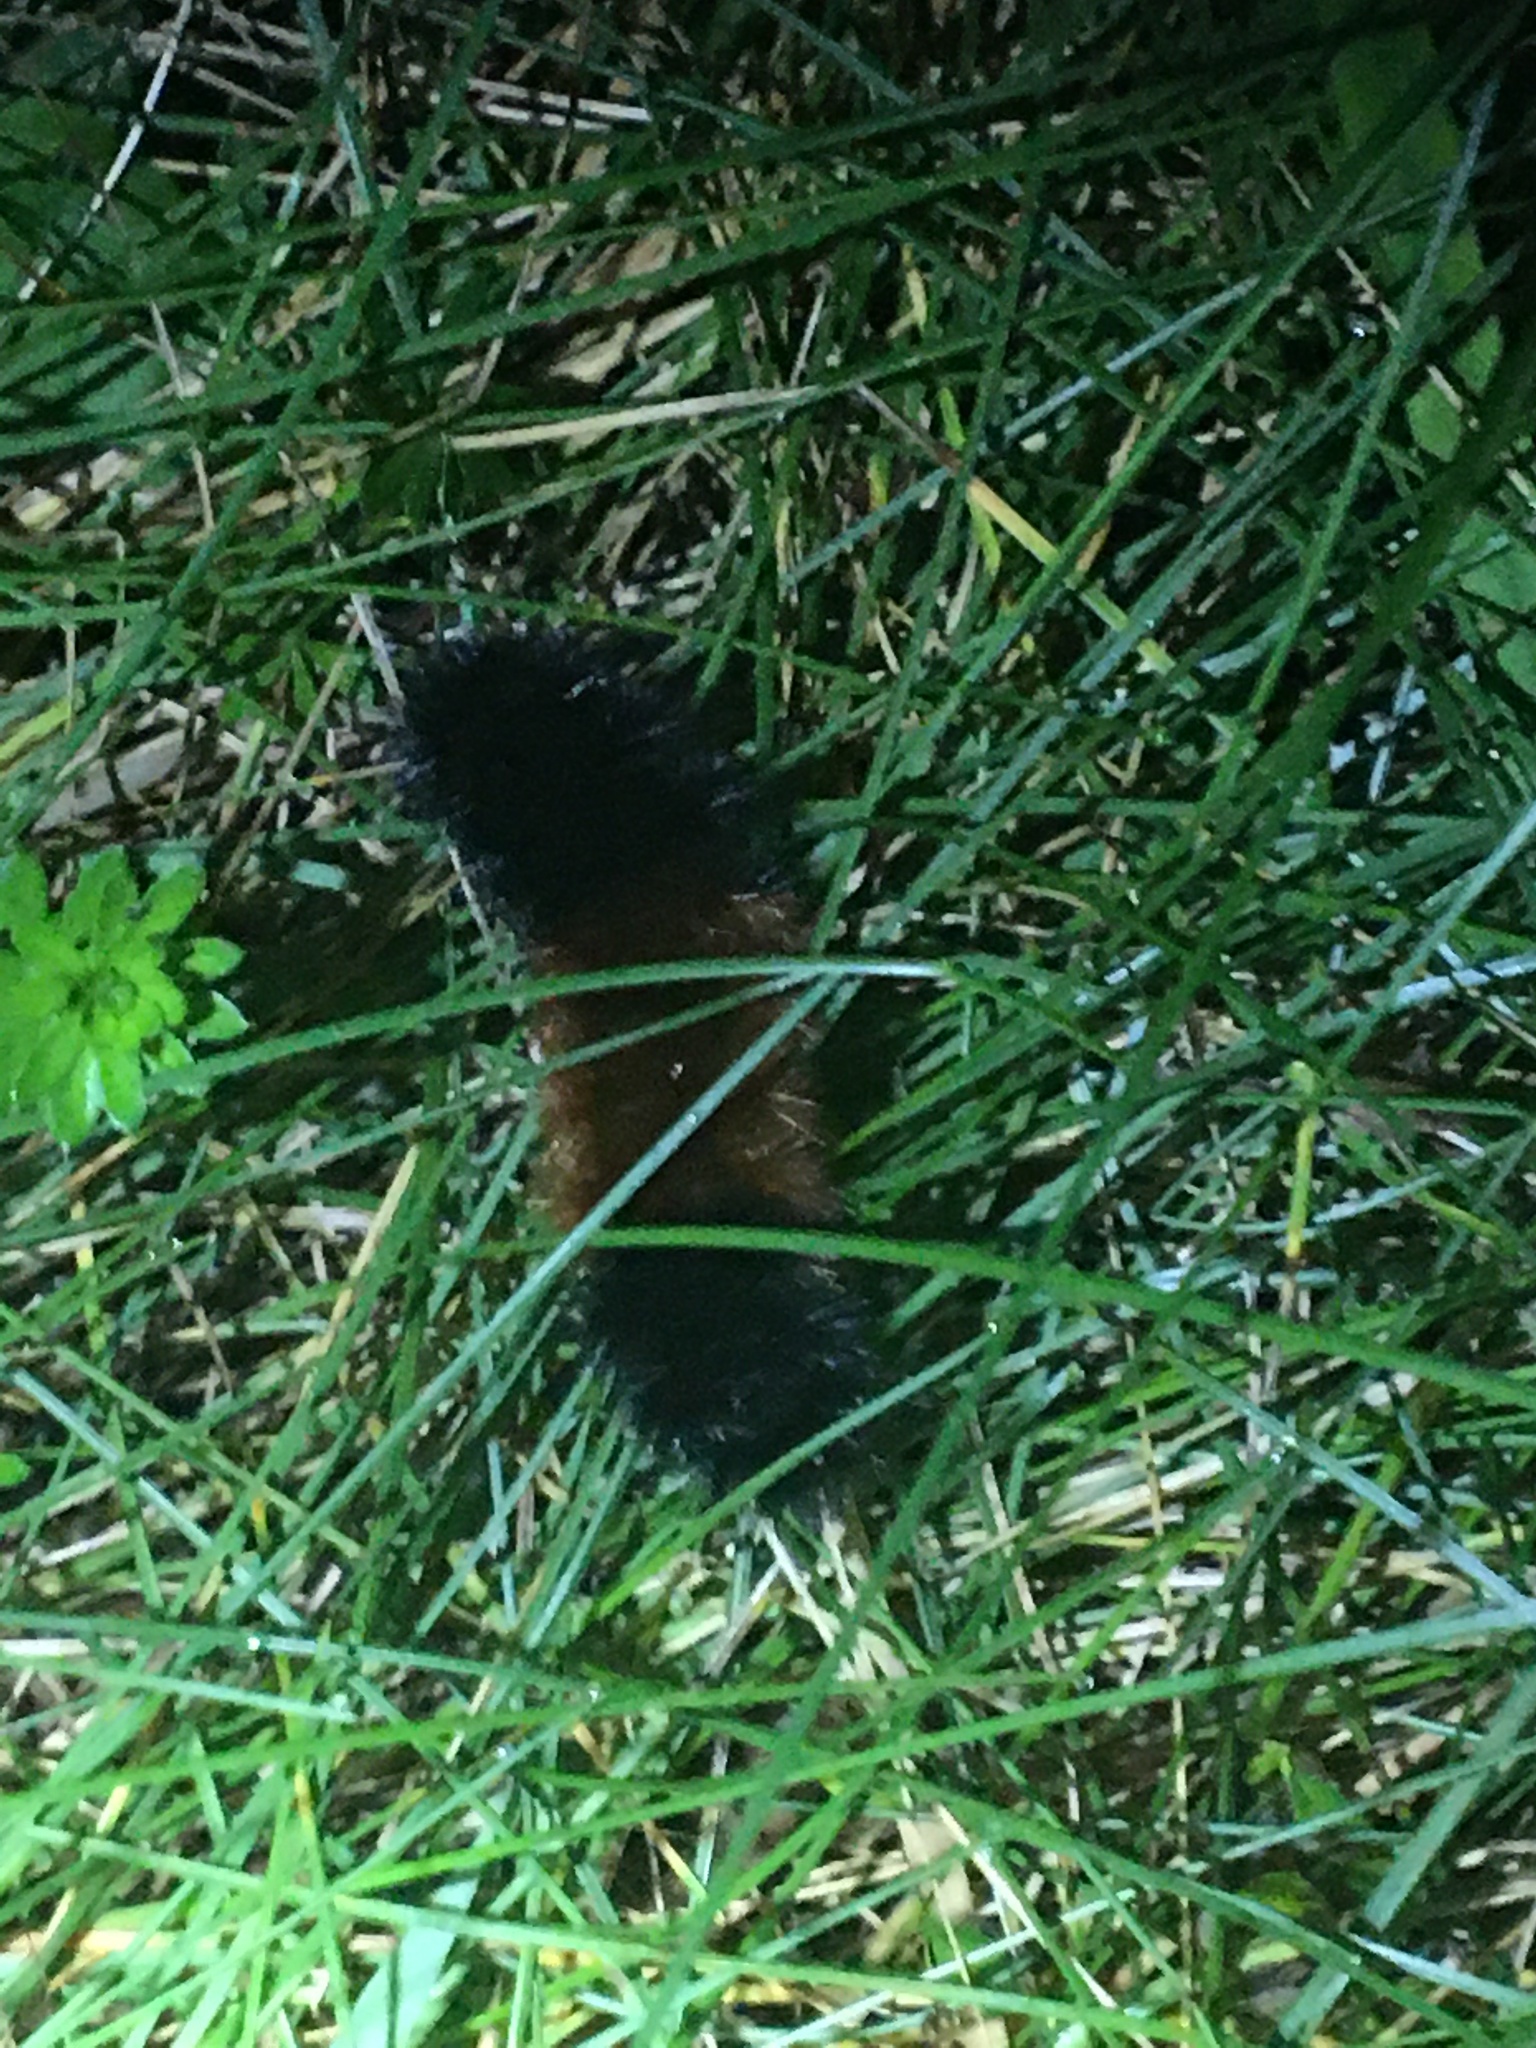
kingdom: Animalia
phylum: Arthropoda
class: Insecta
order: Lepidoptera
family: Erebidae
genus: Pyrrharctia
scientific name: Pyrrharctia isabella
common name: Isabella tiger moth
